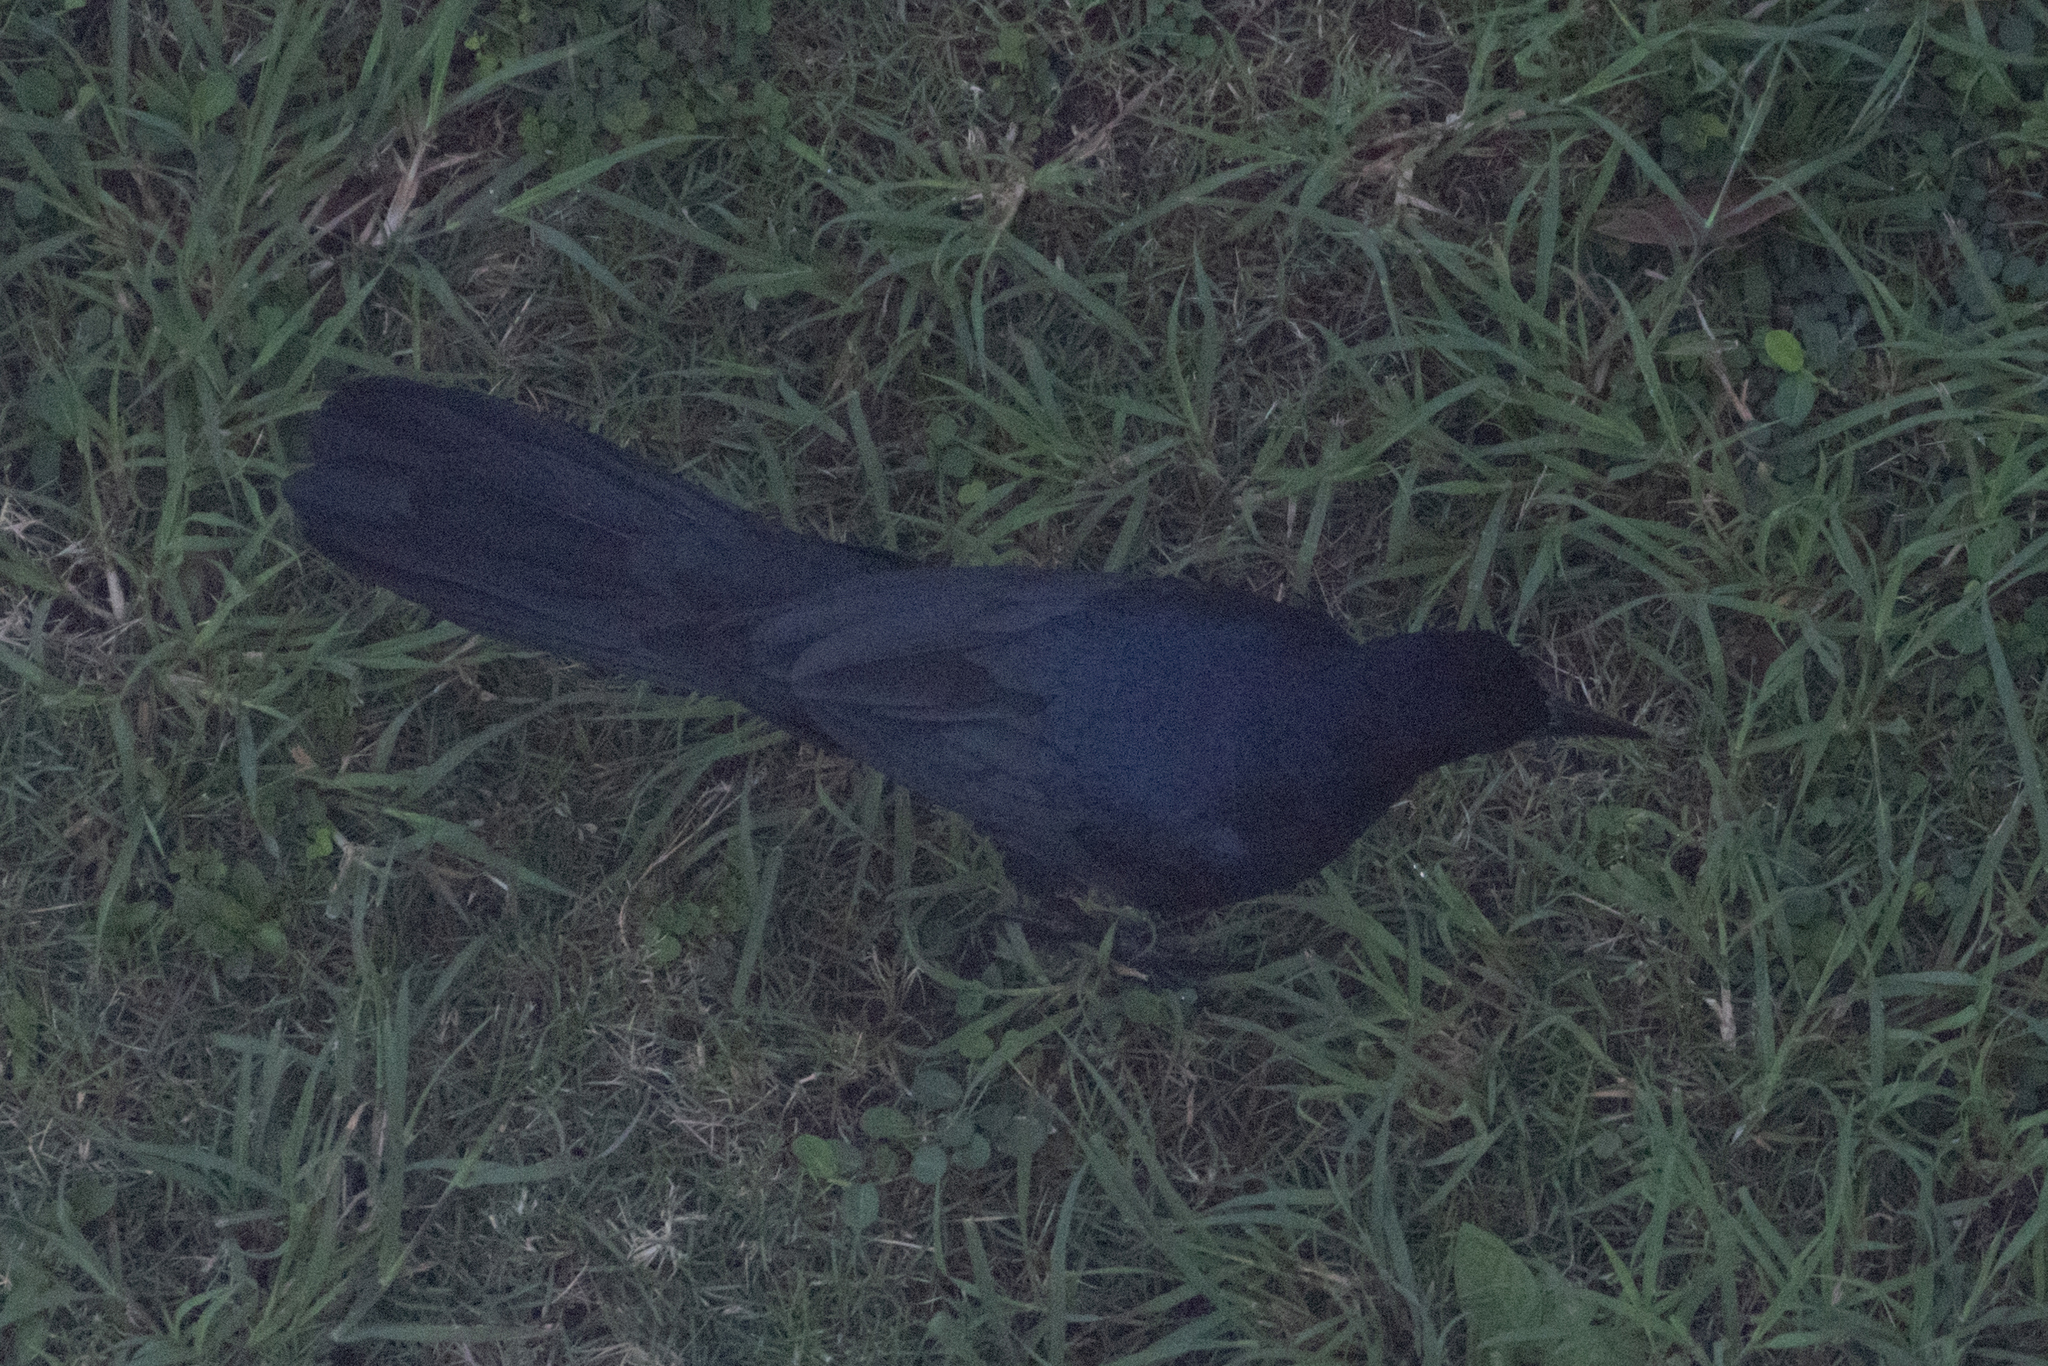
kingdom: Animalia
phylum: Chordata
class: Aves
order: Passeriformes
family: Icteridae
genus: Quiscalus
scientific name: Quiscalus mexicanus
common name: Great-tailed grackle
